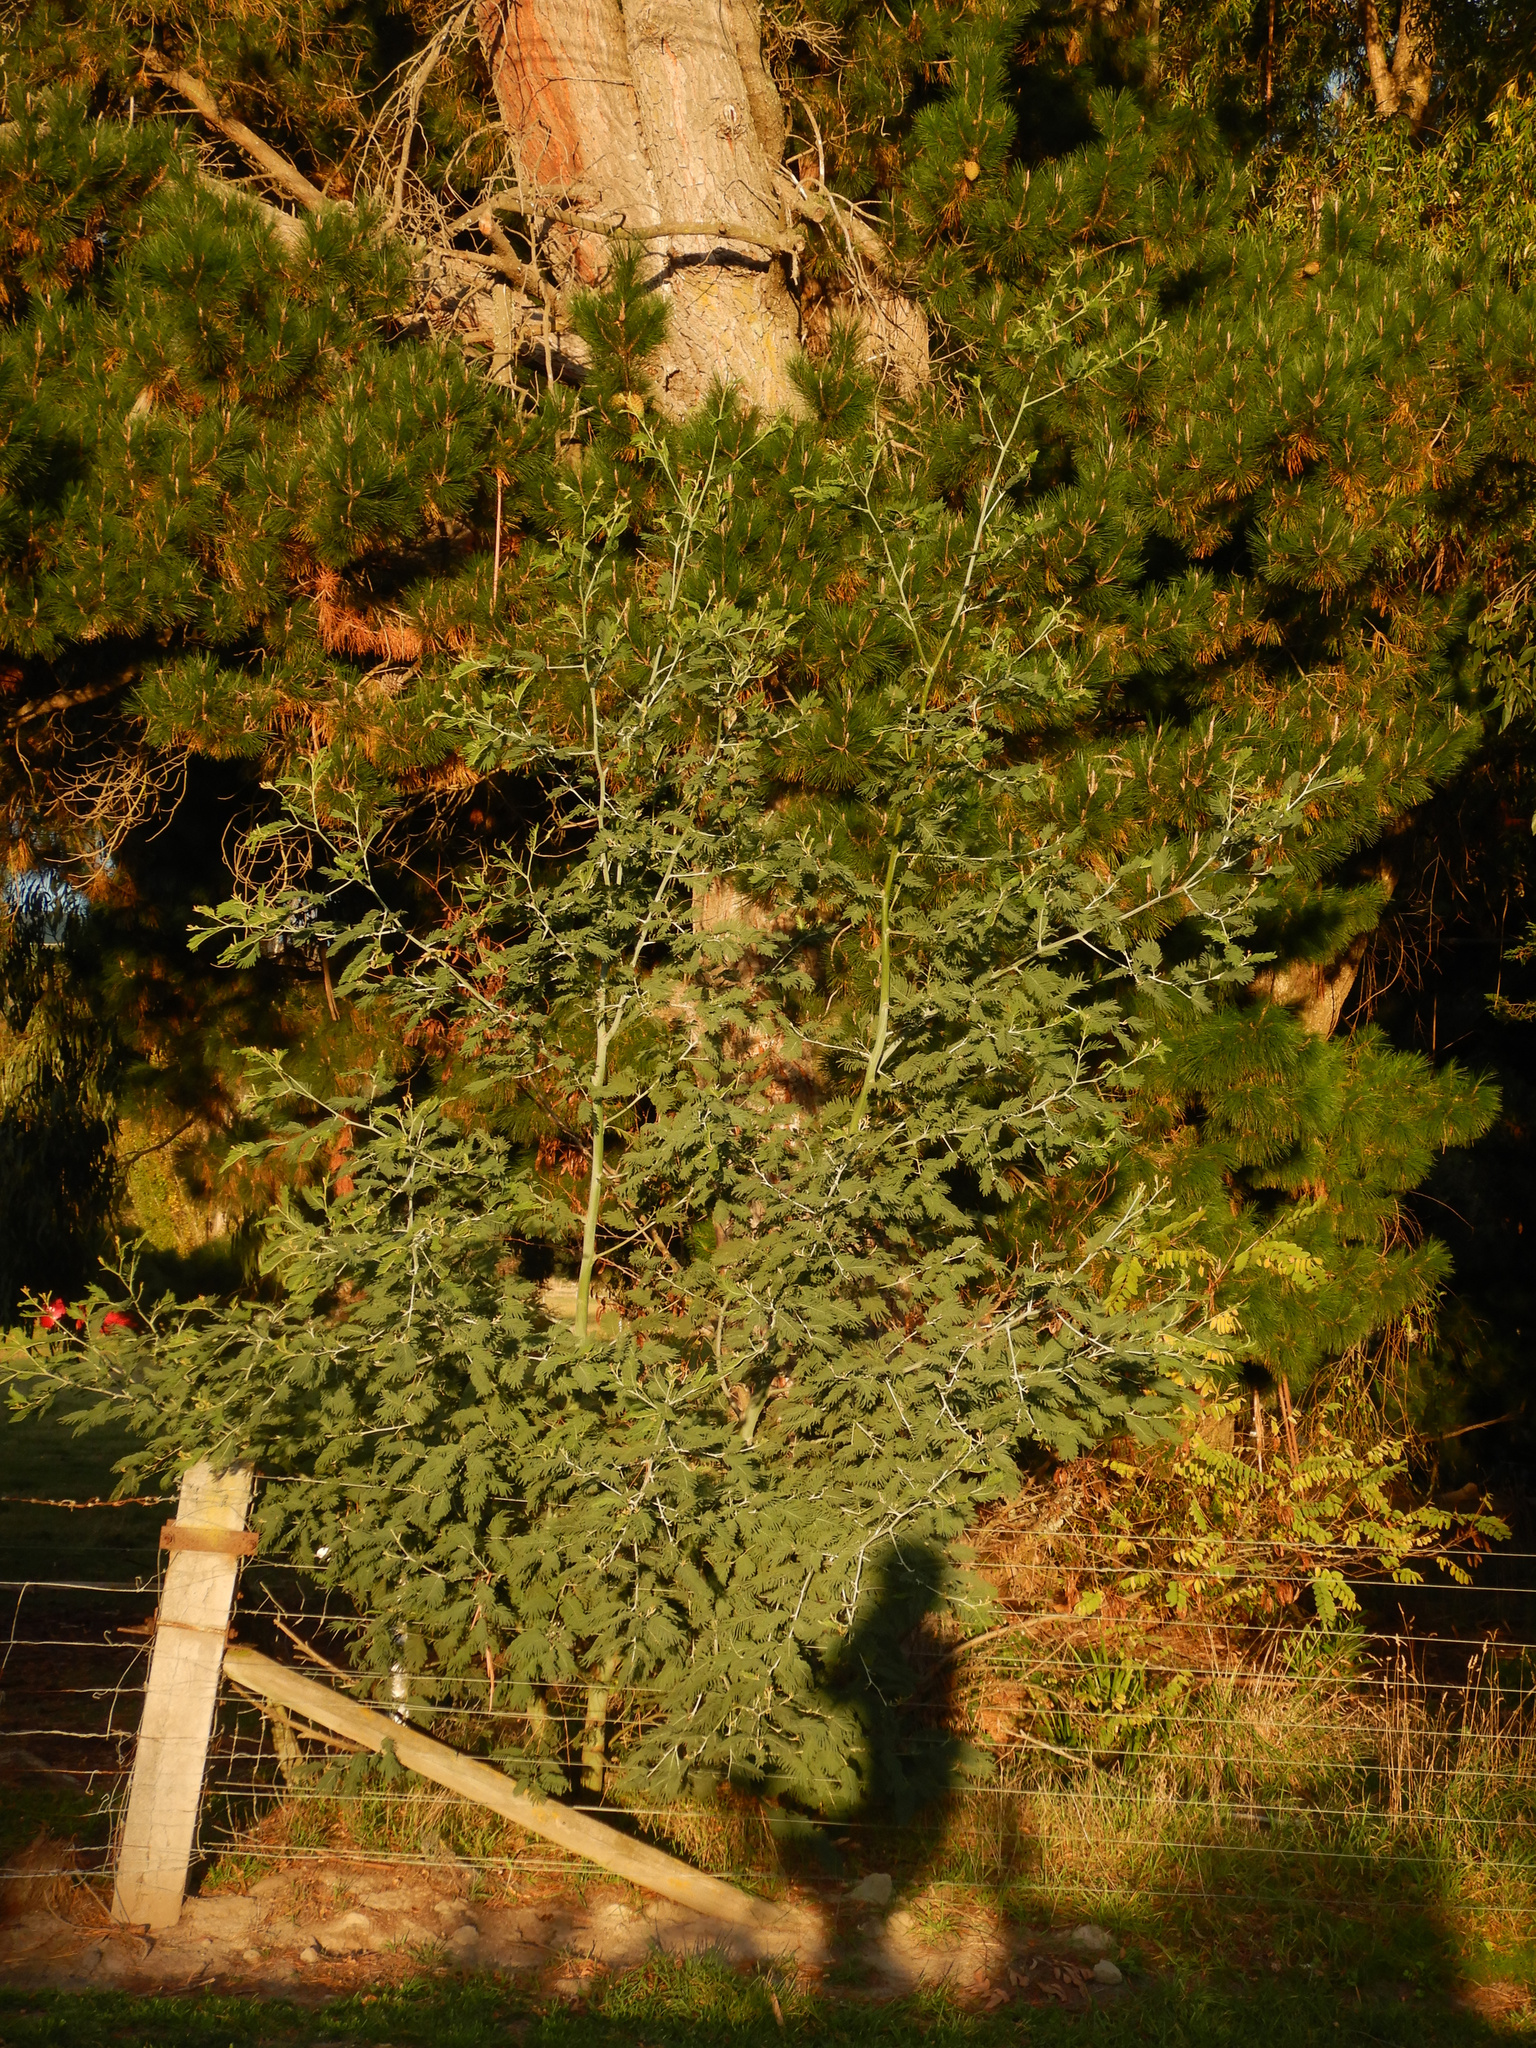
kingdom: Plantae
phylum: Tracheophyta
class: Magnoliopsida
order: Fabales
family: Fabaceae
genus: Acacia
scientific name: Acacia dealbata
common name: Silver wattle
